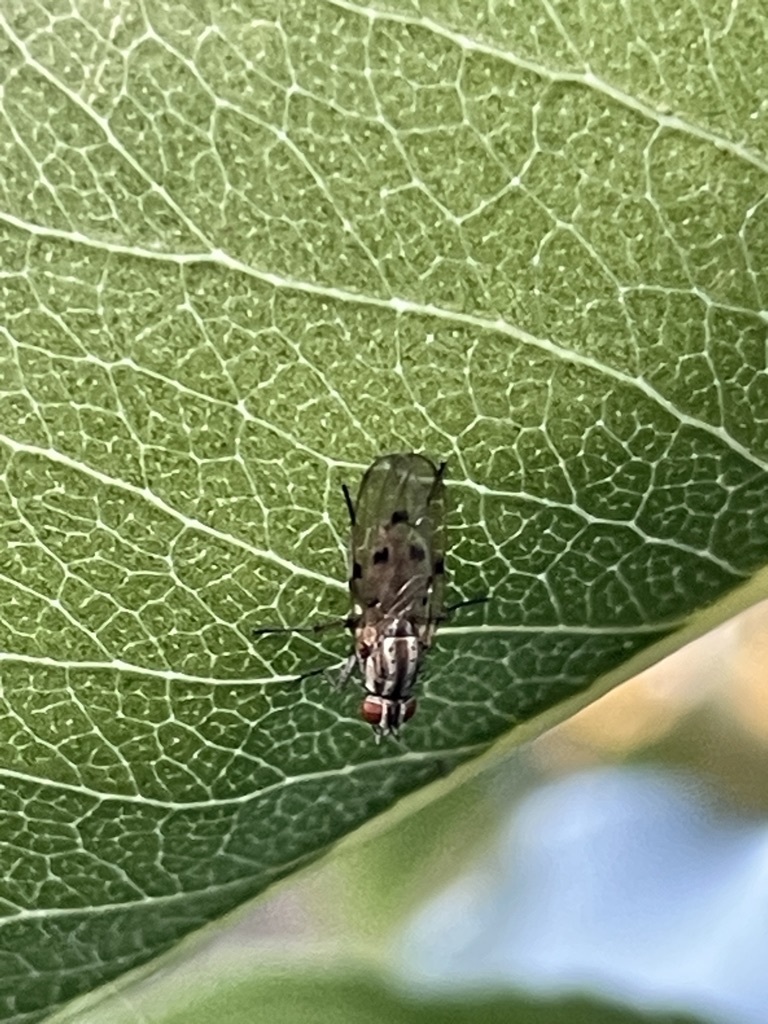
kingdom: Animalia
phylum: Arthropoda
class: Insecta
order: Diptera
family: Anthomyiidae
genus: Anthomyia
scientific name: Anthomyia punctipennis
